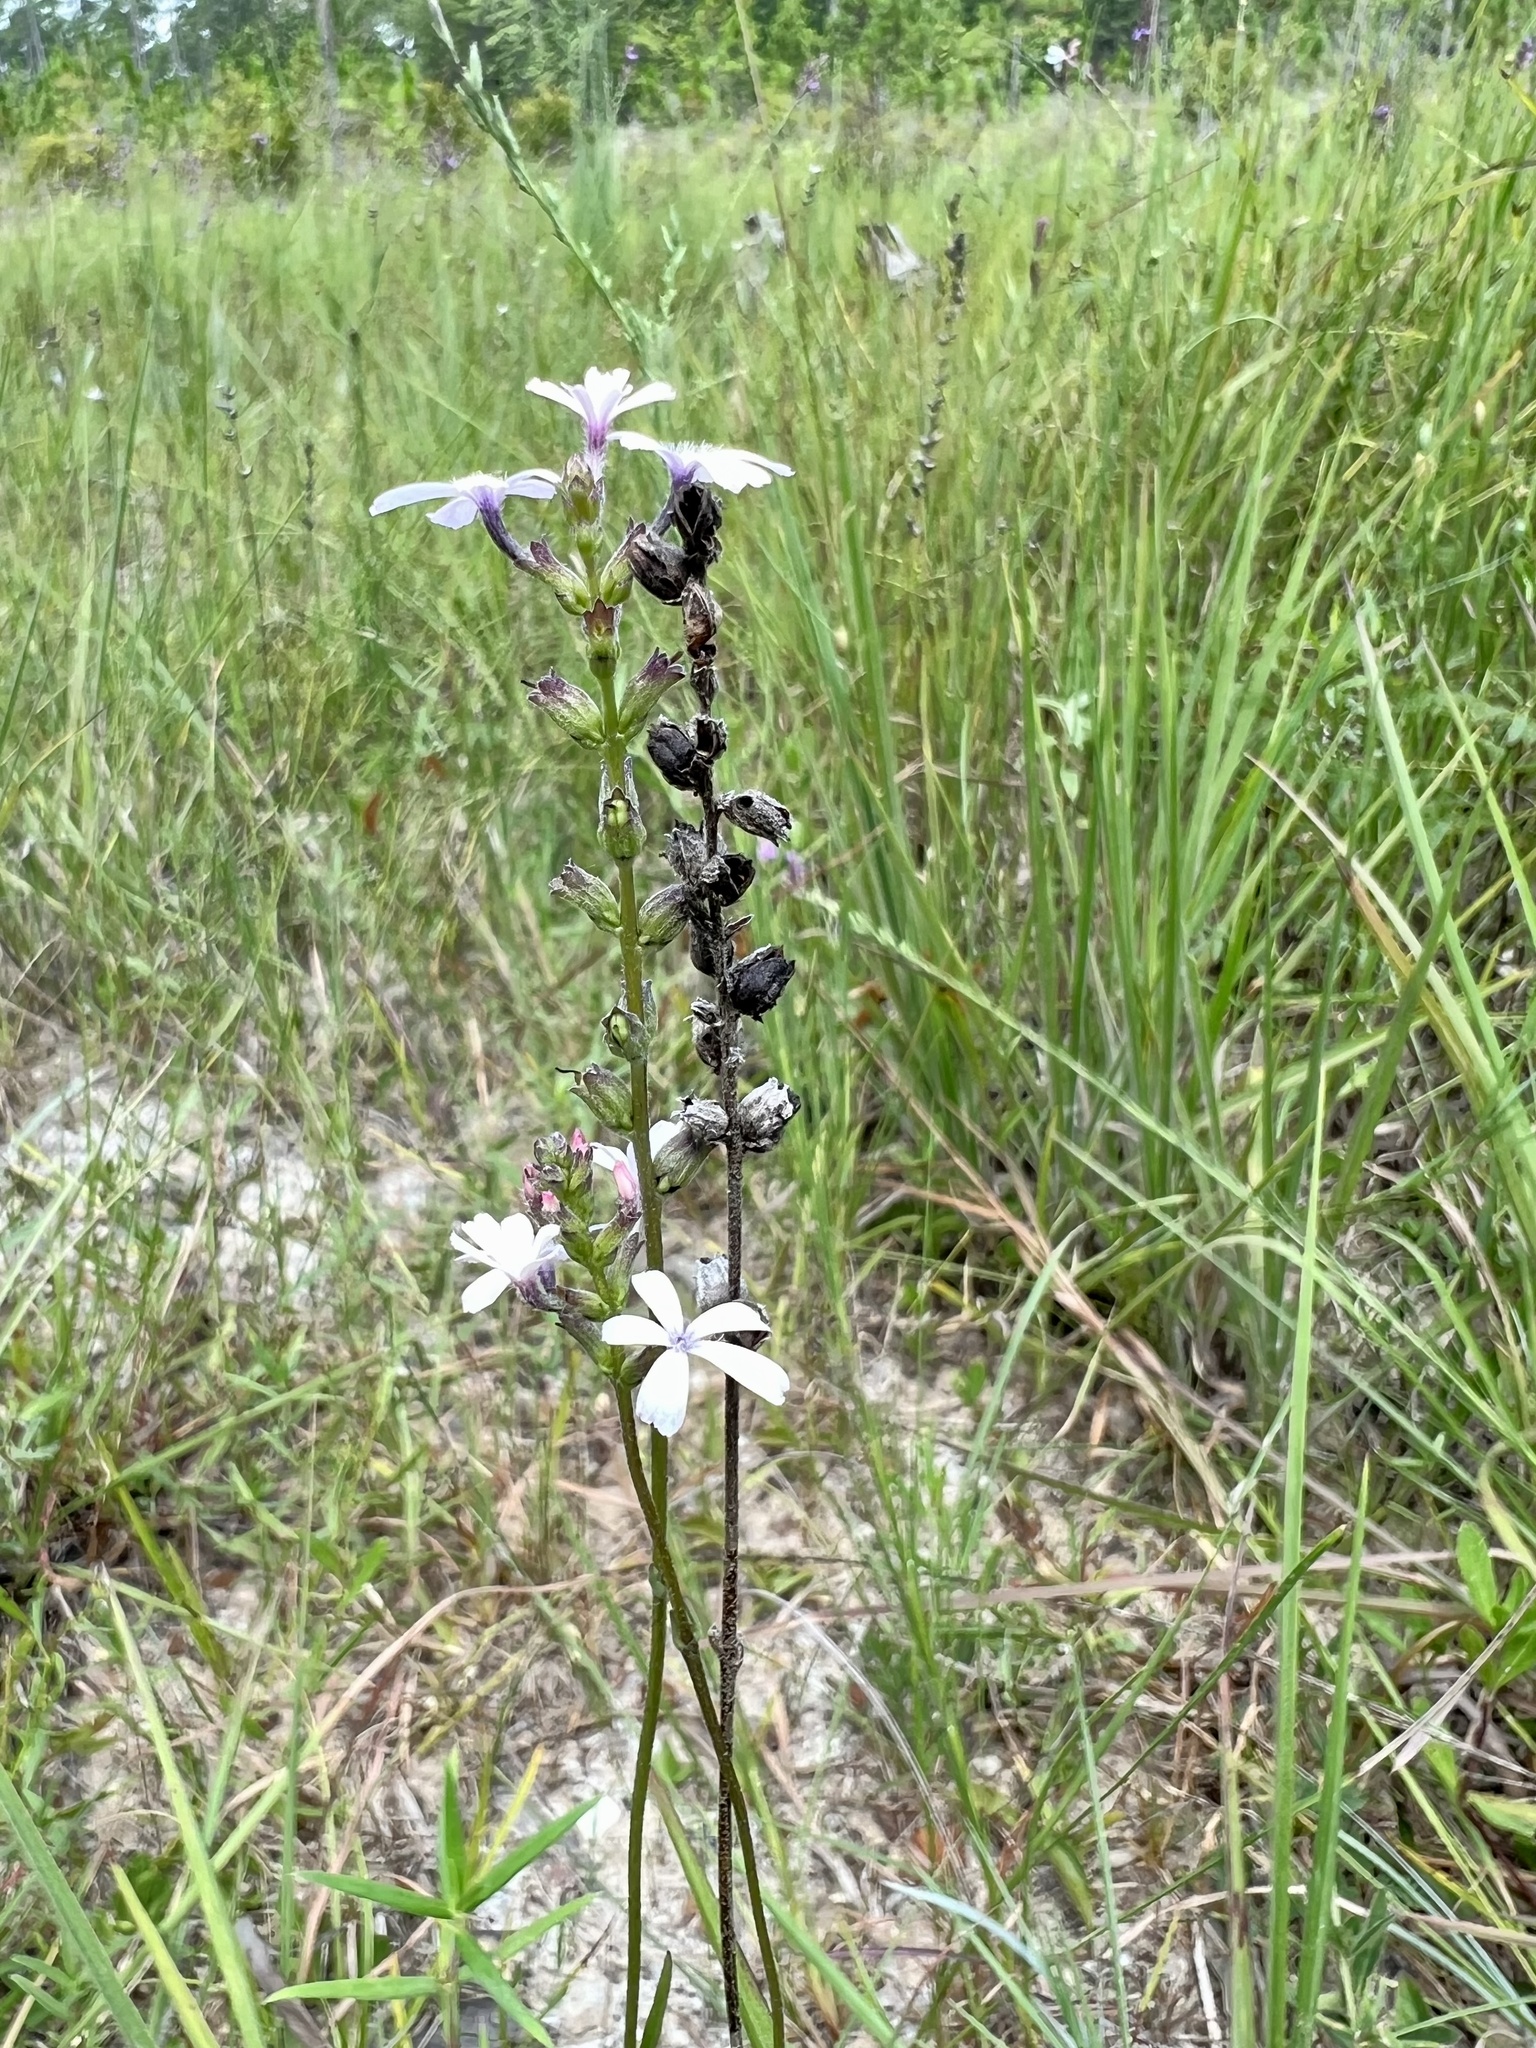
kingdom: Plantae
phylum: Tracheophyta
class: Magnoliopsida
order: Lamiales
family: Orobanchaceae
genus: Buchnera
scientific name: Buchnera floridana
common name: Florida bluehearts
